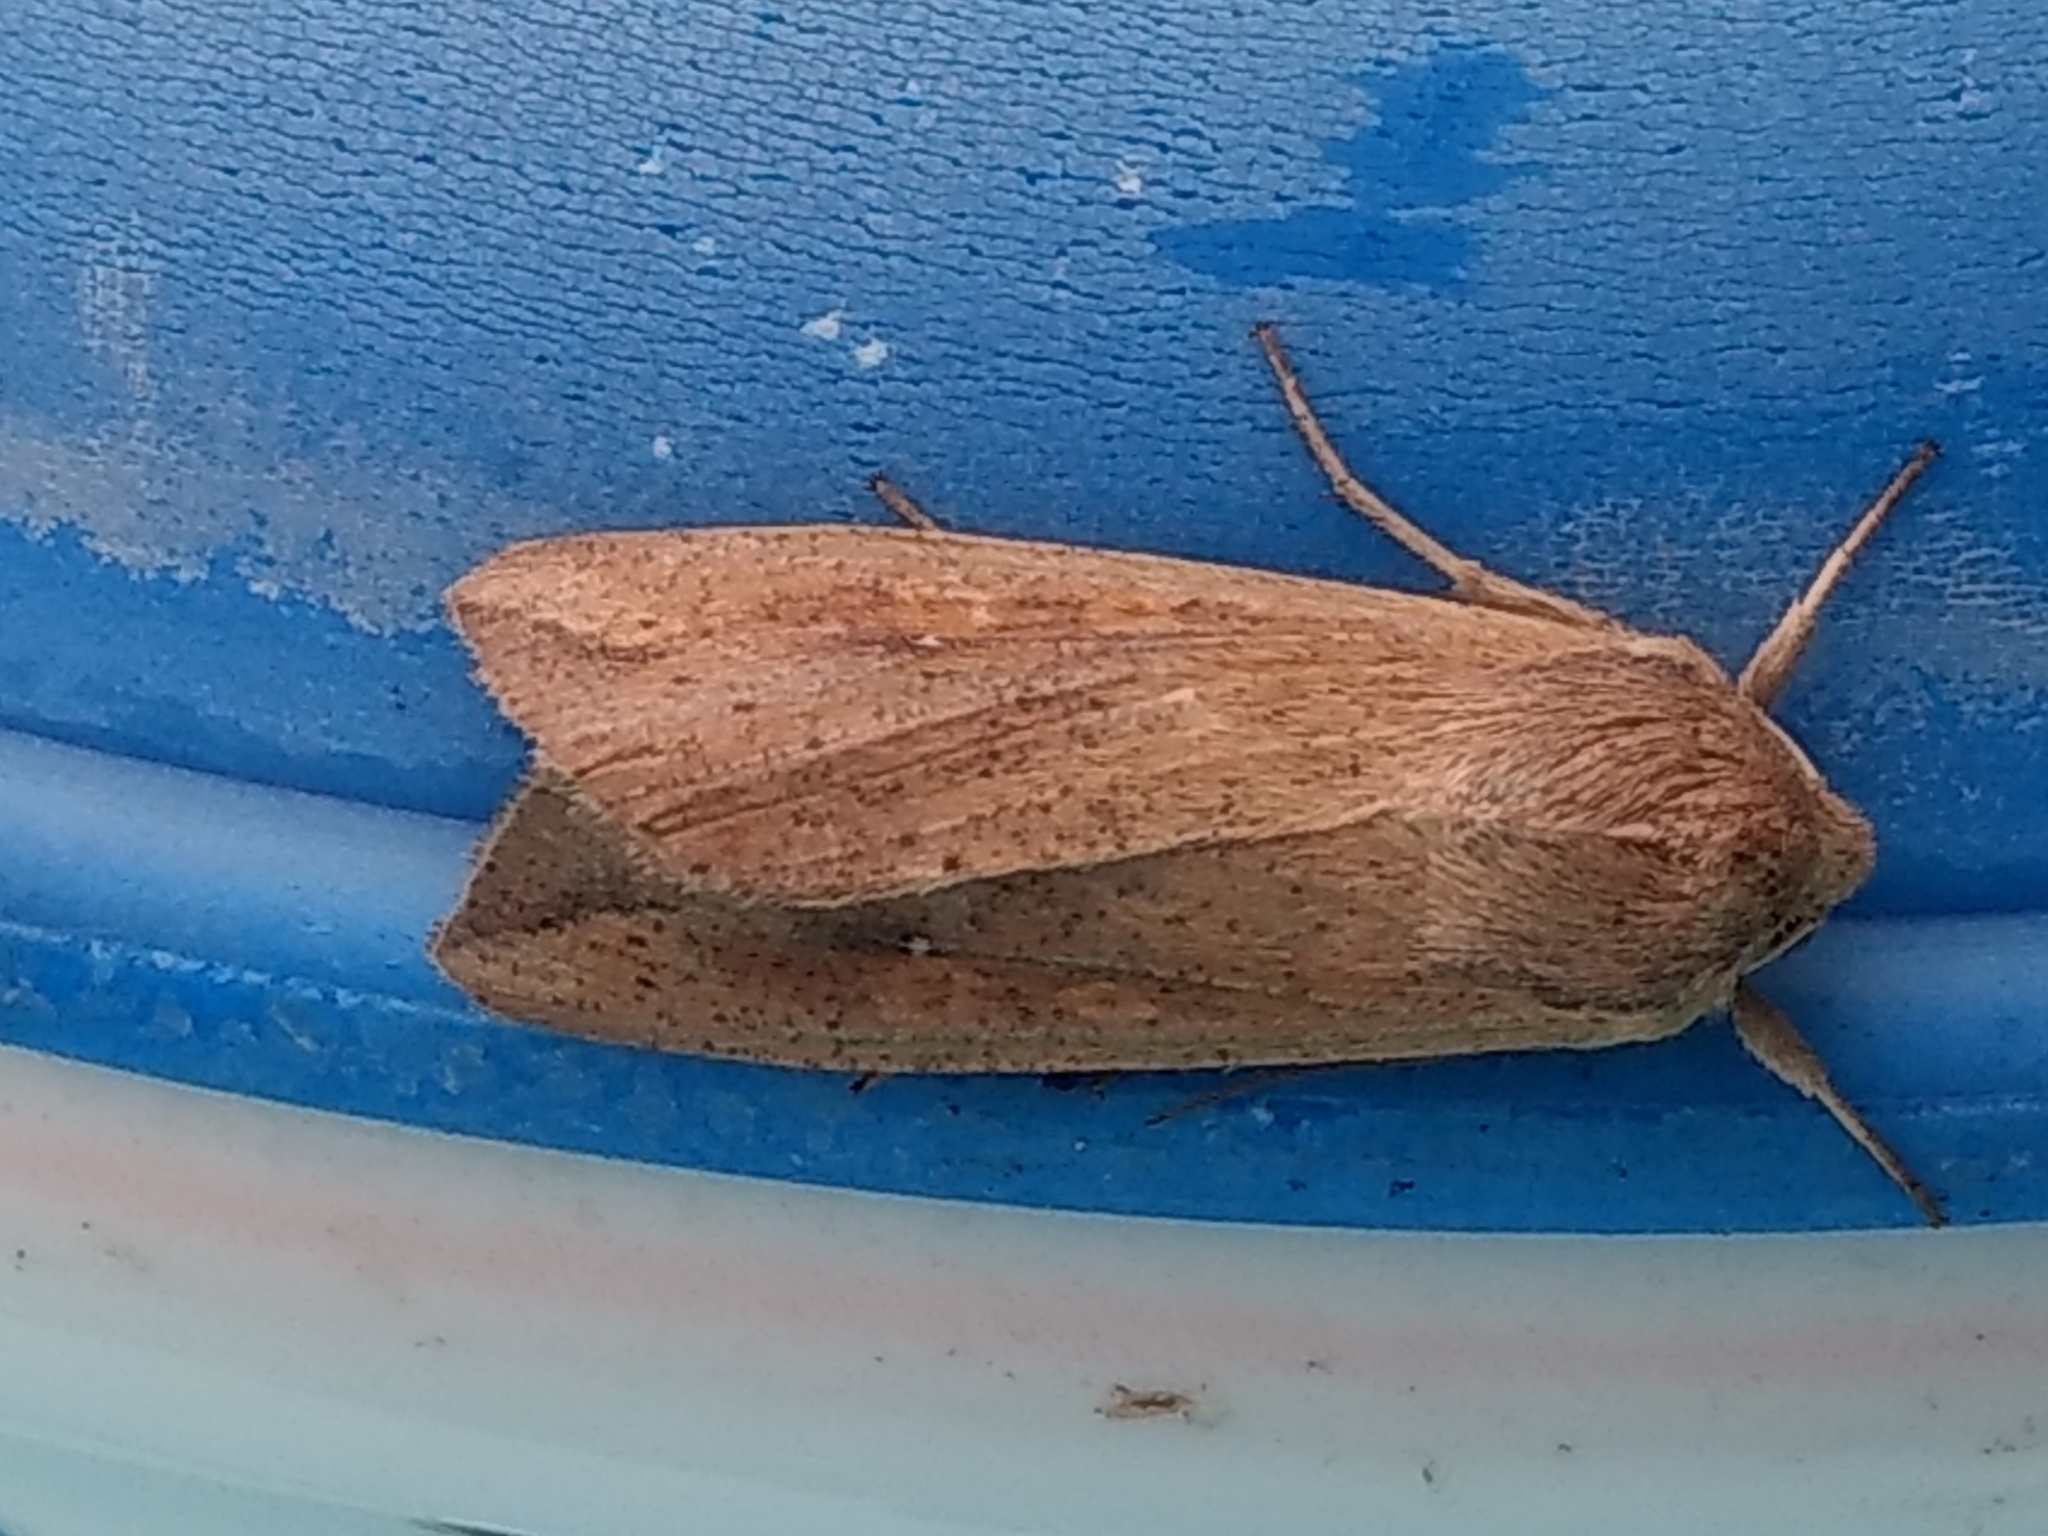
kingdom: Animalia
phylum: Arthropoda
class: Insecta
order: Lepidoptera
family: Noctuidae
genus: Mythimna
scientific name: Mythimna unipuncta
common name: White-speck
